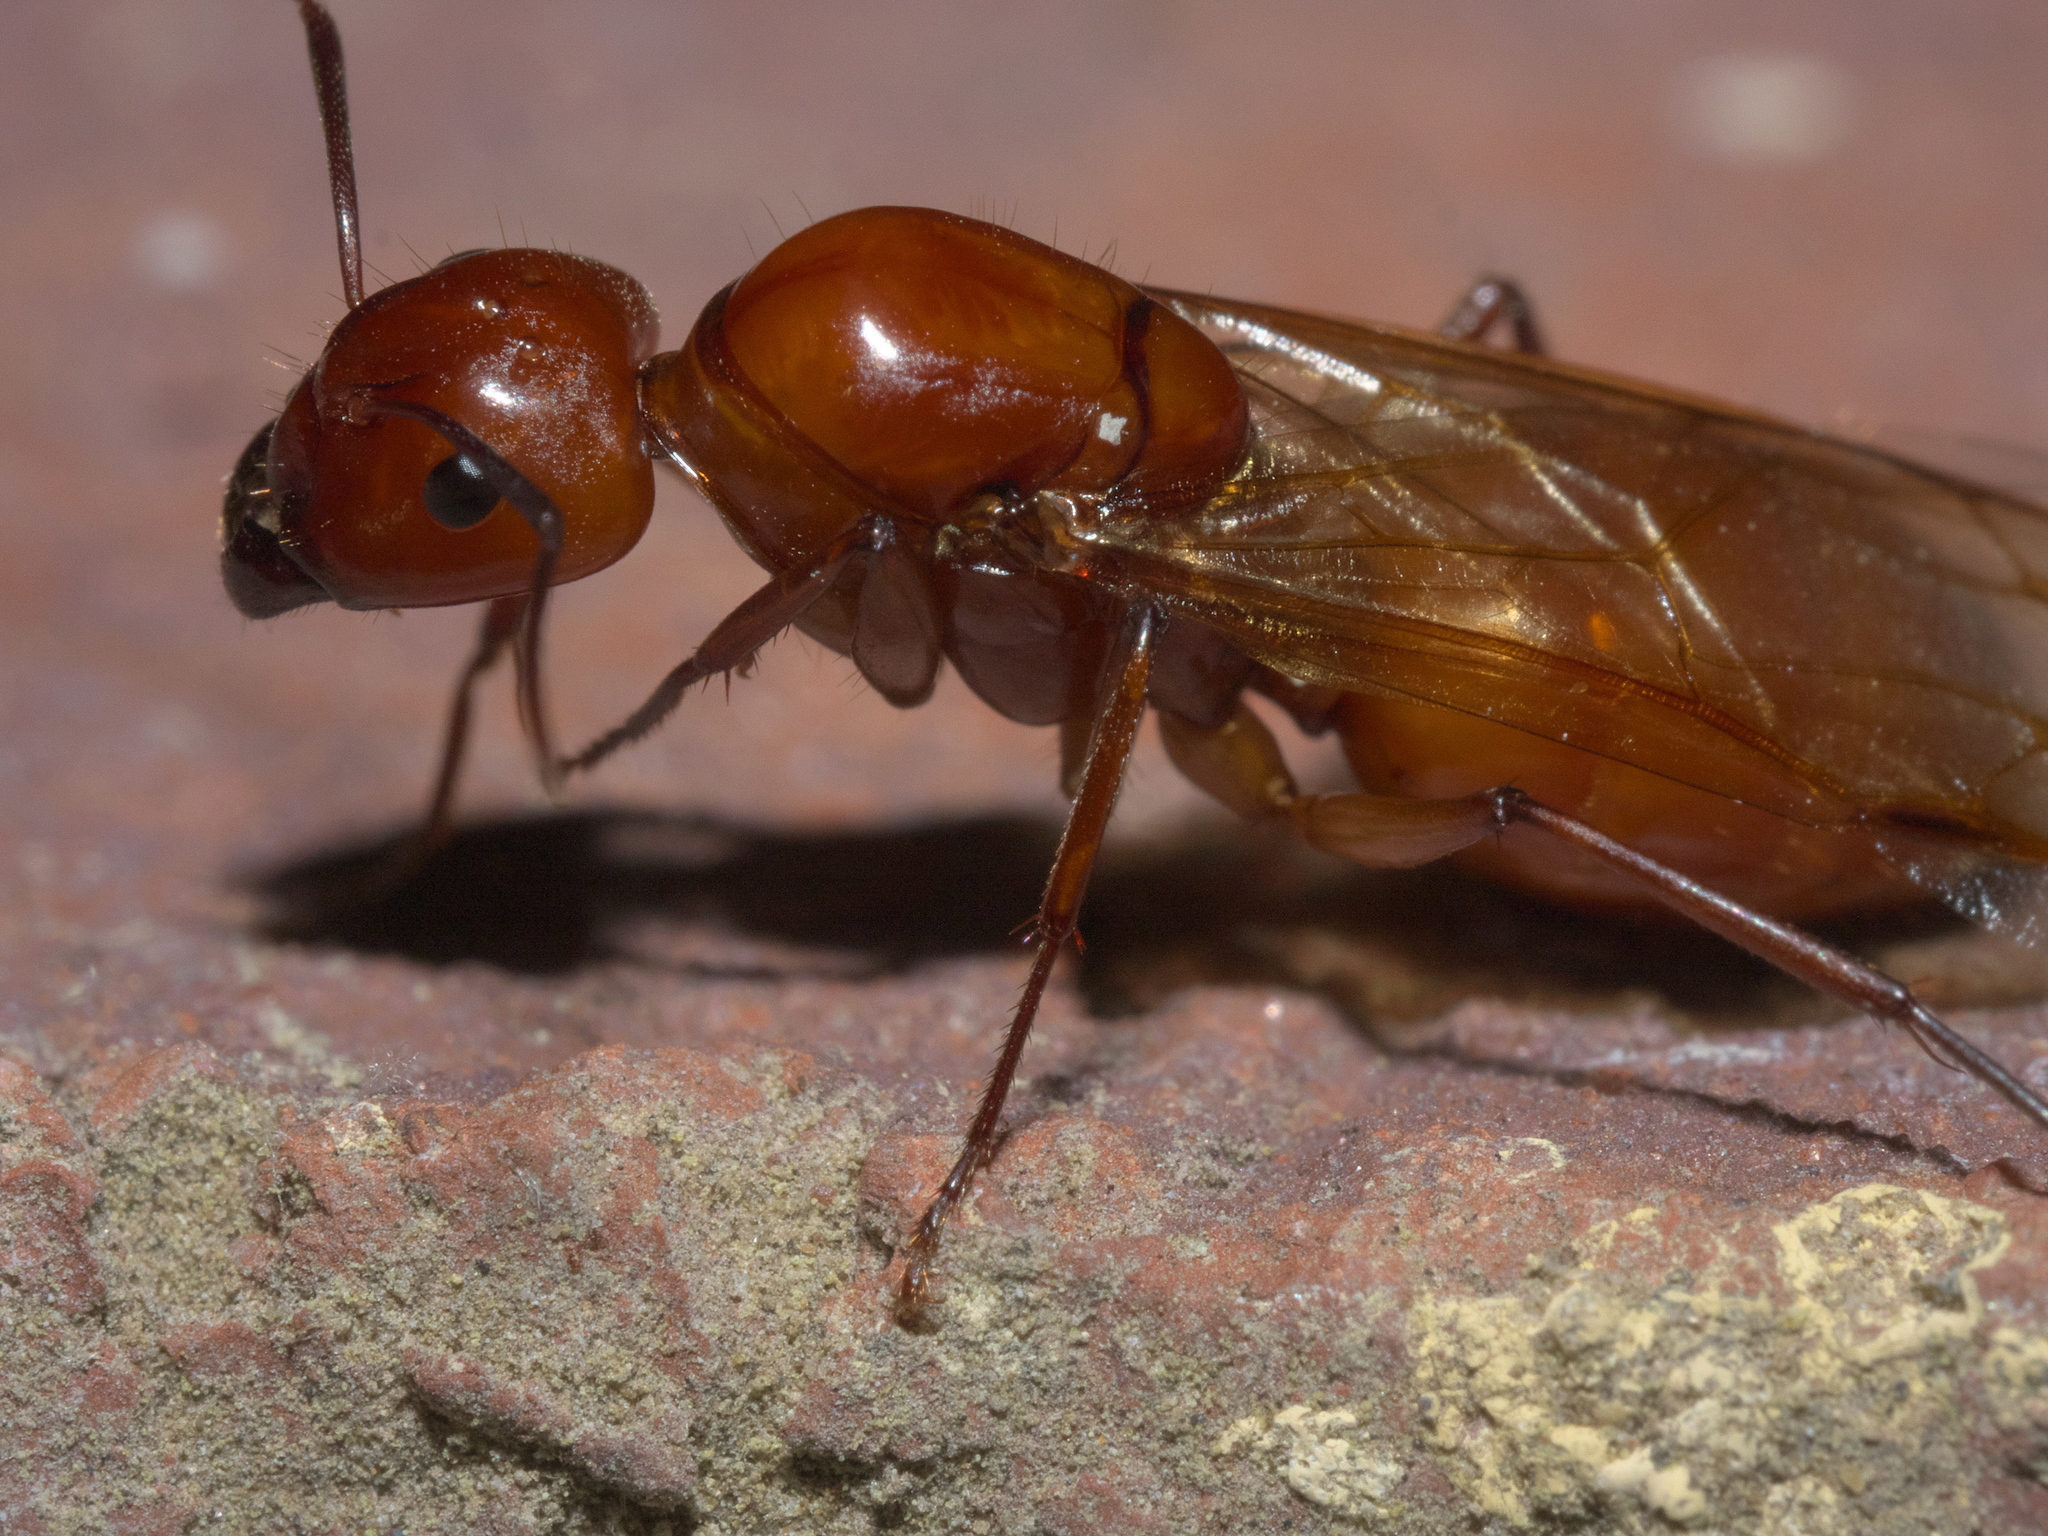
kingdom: Animalia
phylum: Arthropoda
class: Insecta
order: Hymenoptera
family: Formicidae
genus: Camponotus
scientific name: Camponotus castaneus
